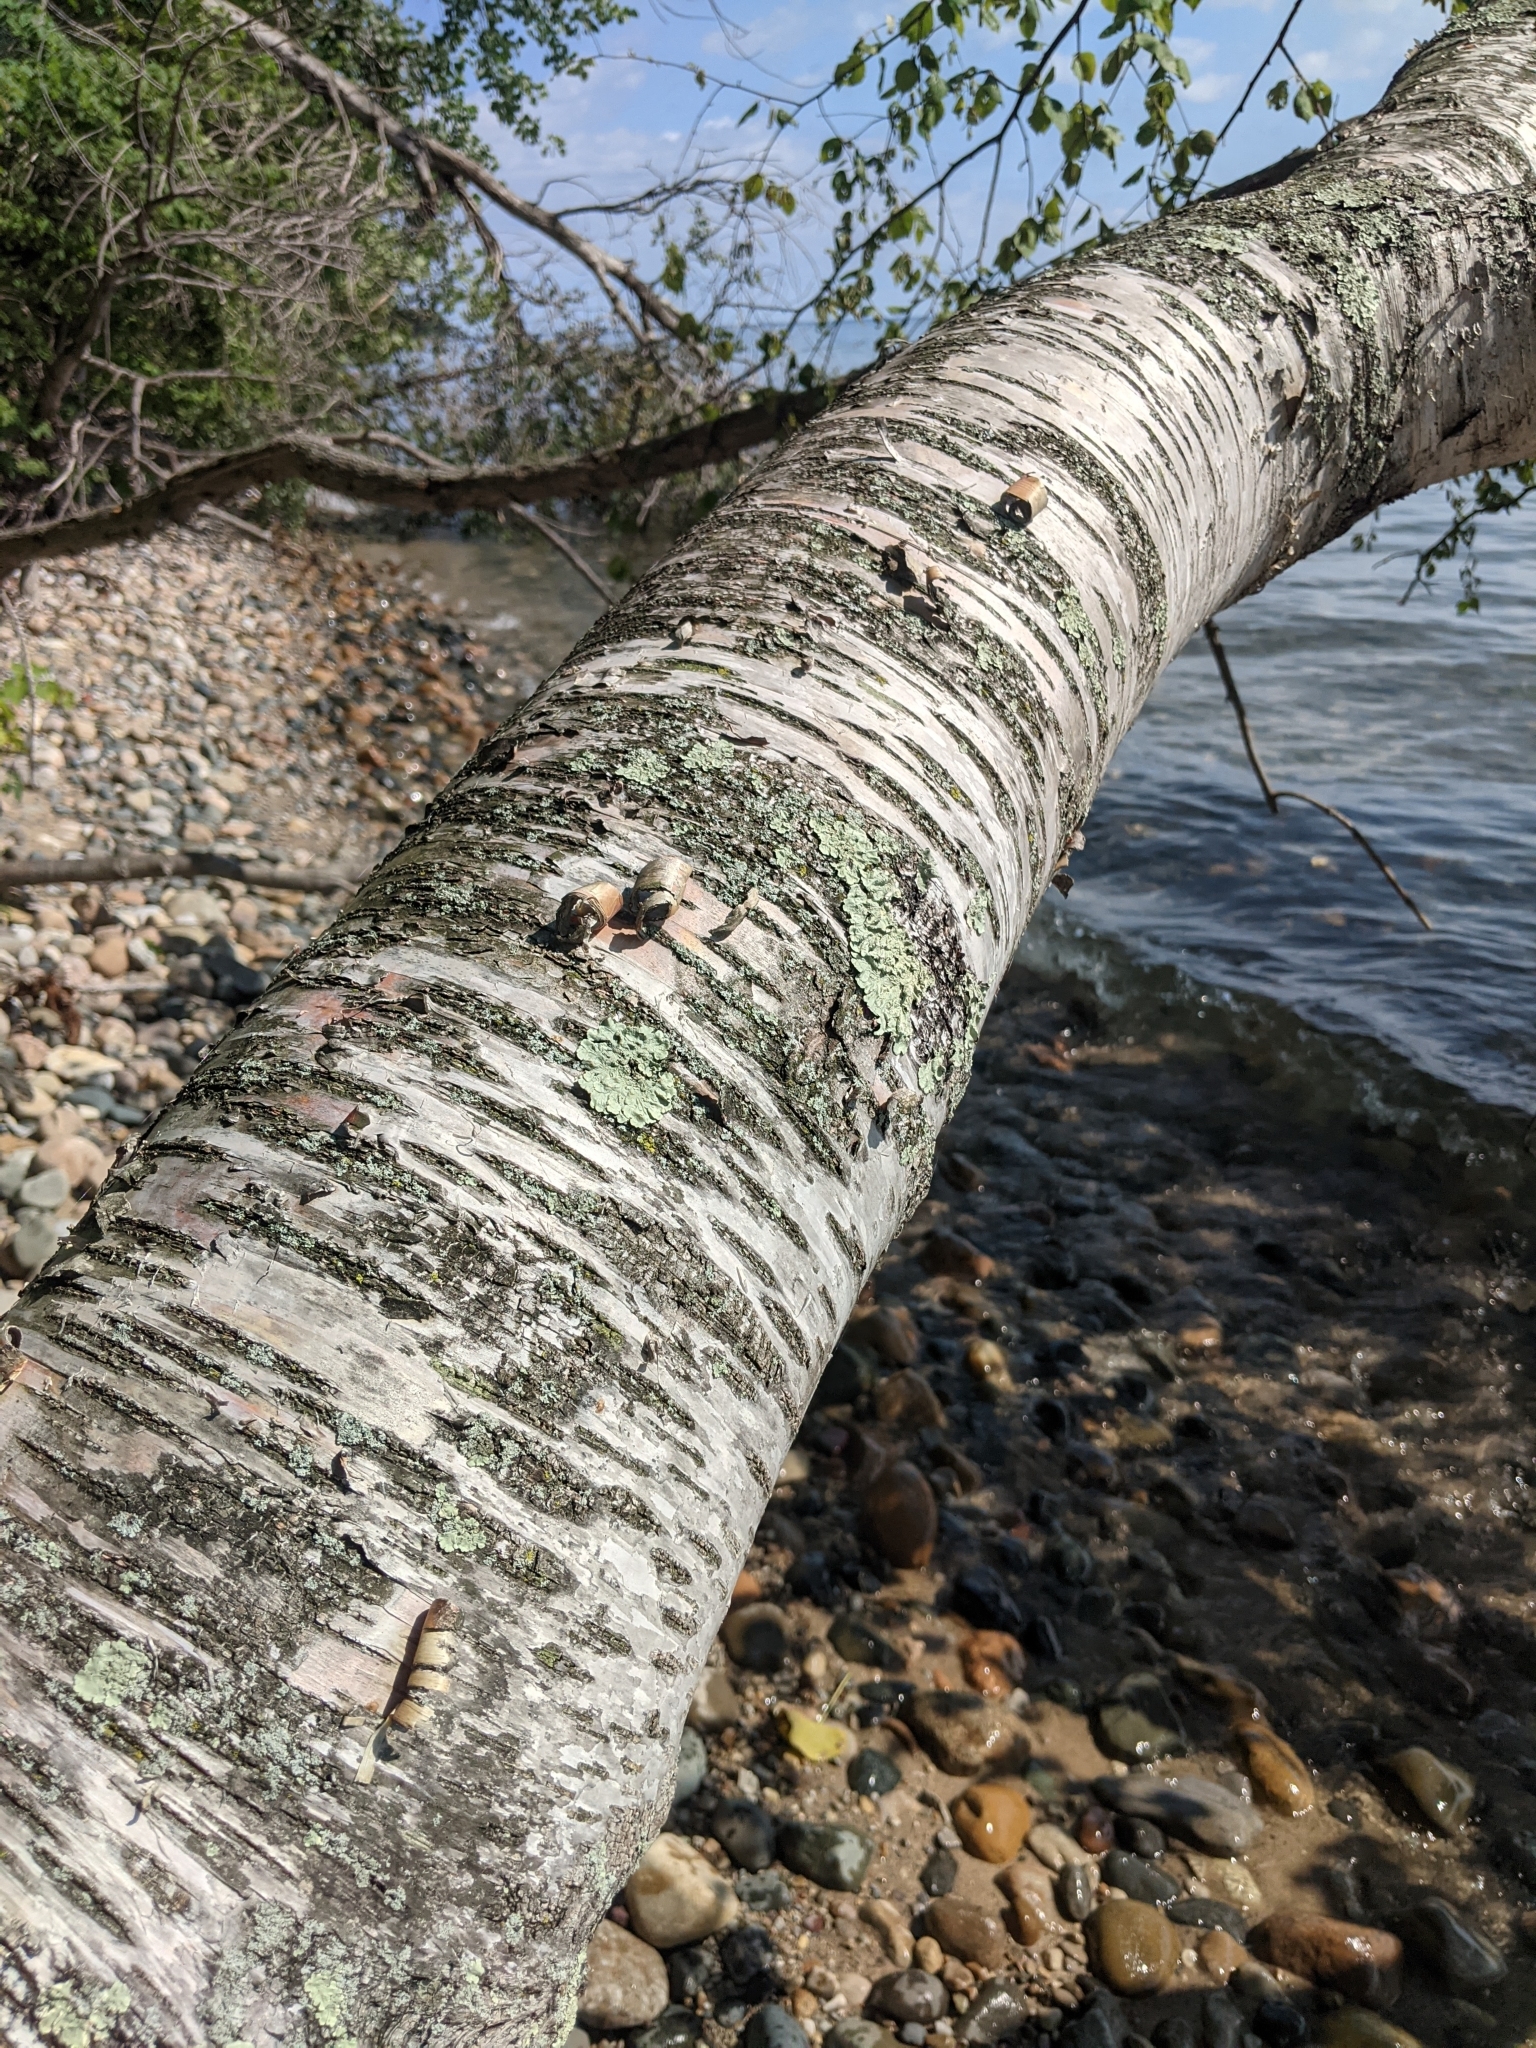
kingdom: Plantae
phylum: Tracheophyta
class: Magnoliopsida
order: Fagales
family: Betulaceae
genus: Betula
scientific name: Betula papyrifera
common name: Paper birch
